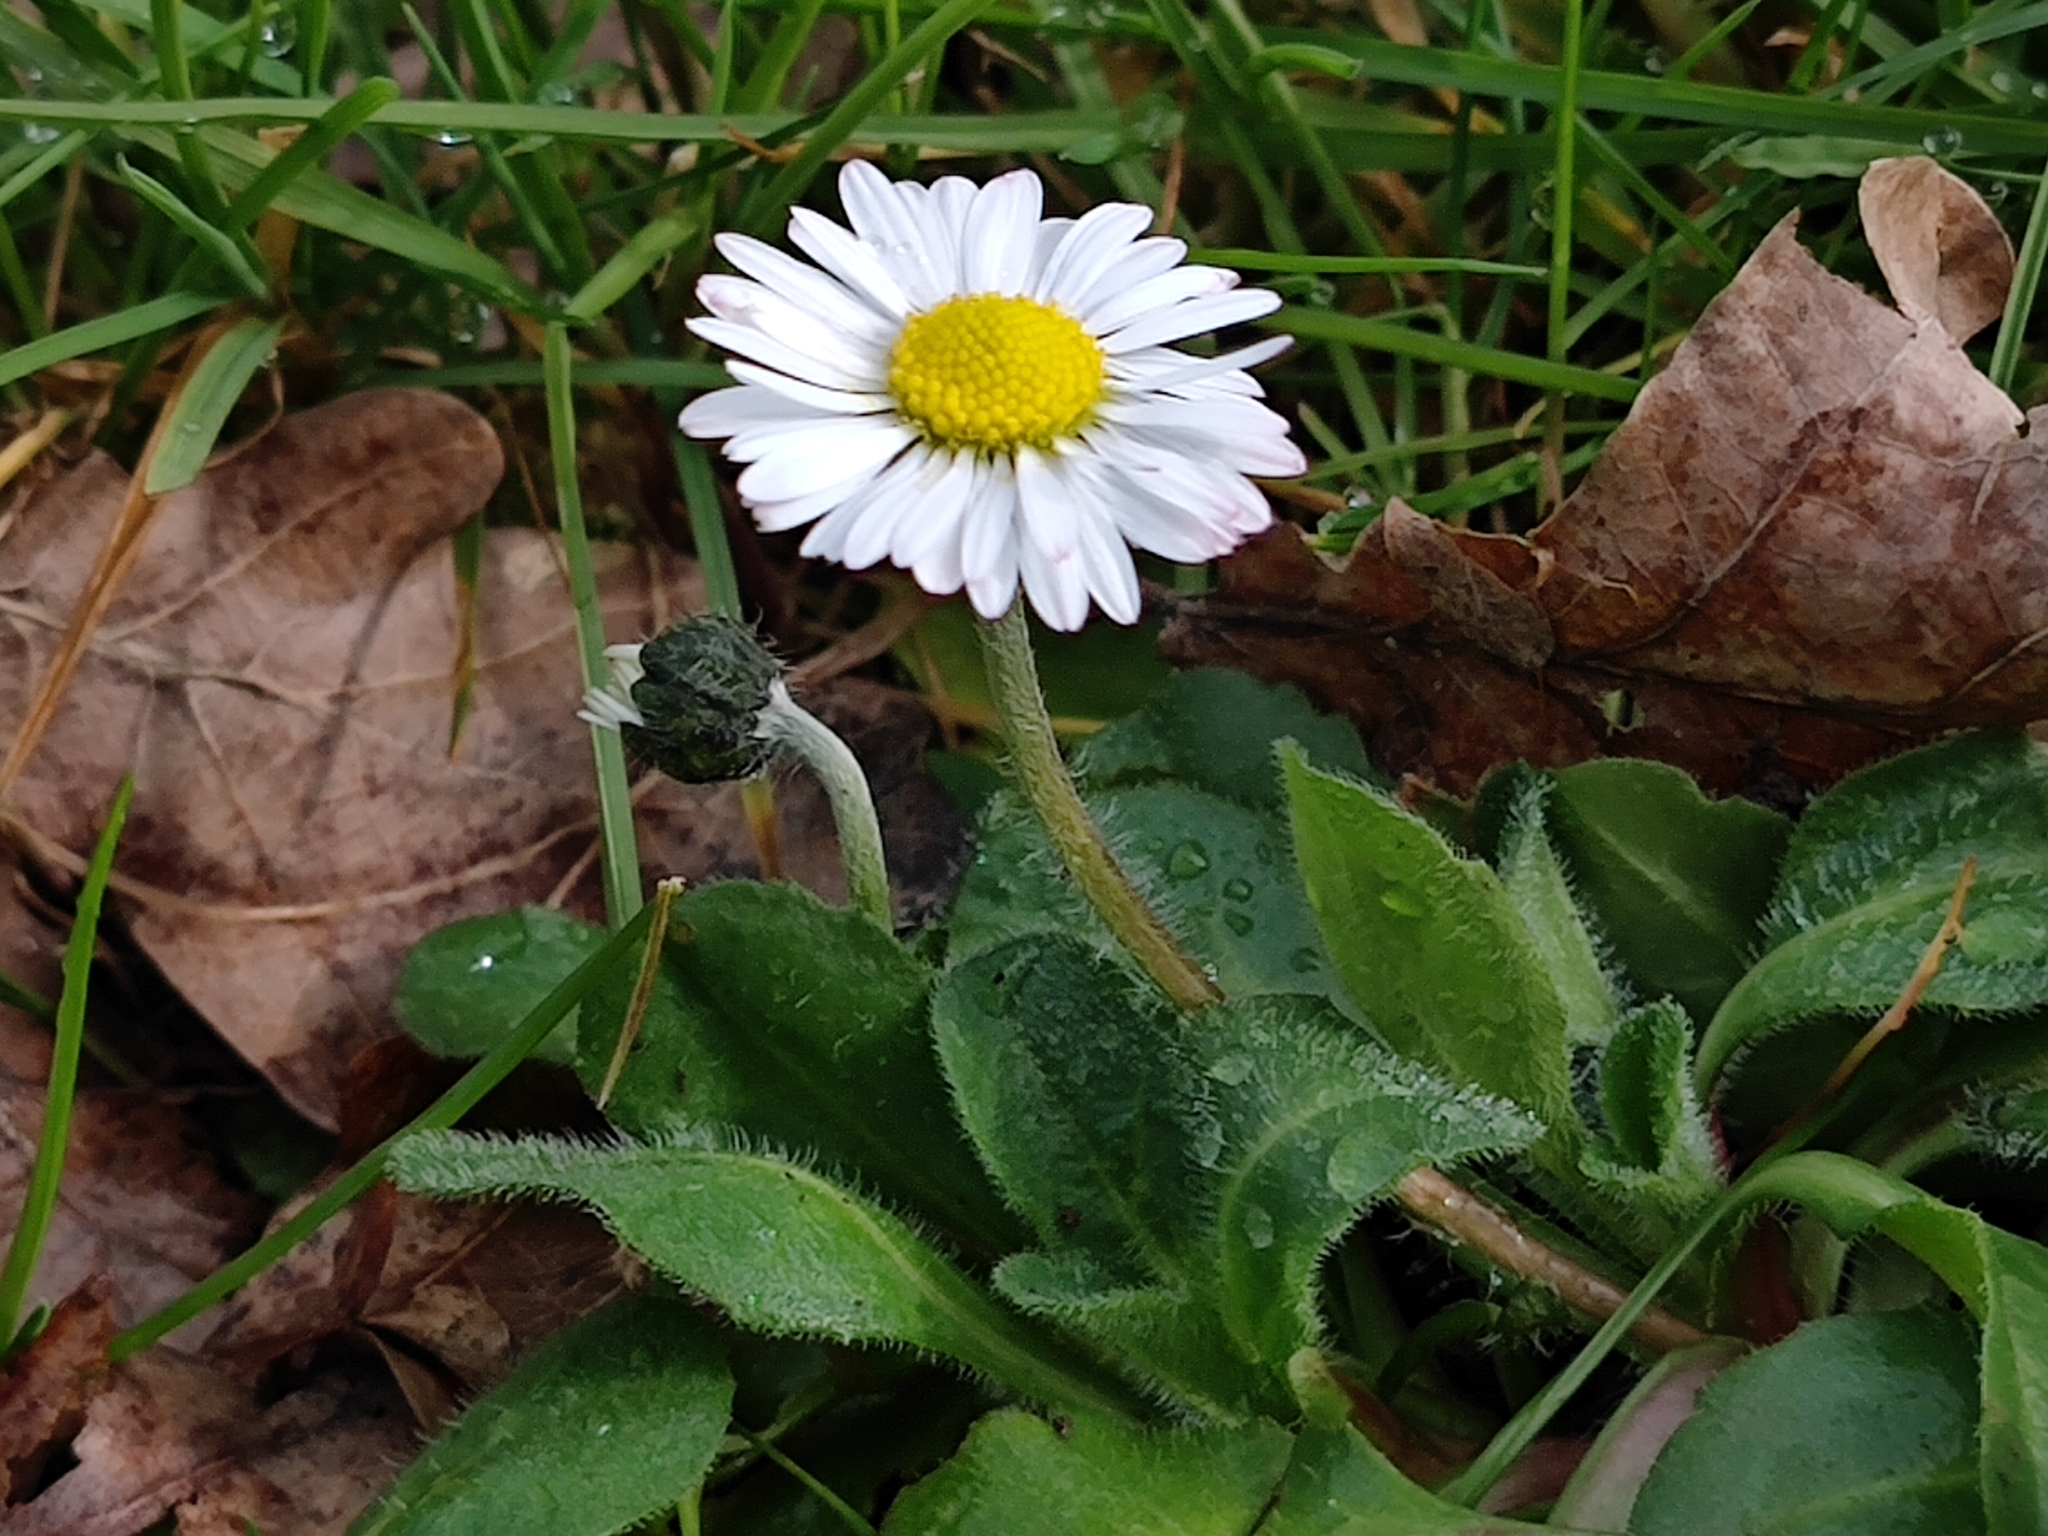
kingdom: Plantae
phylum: Tracheophyta
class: Magnoliopsida
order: Asterales
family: Asteraceae
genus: Bellis
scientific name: Bellis perennis
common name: Lawndaisy
